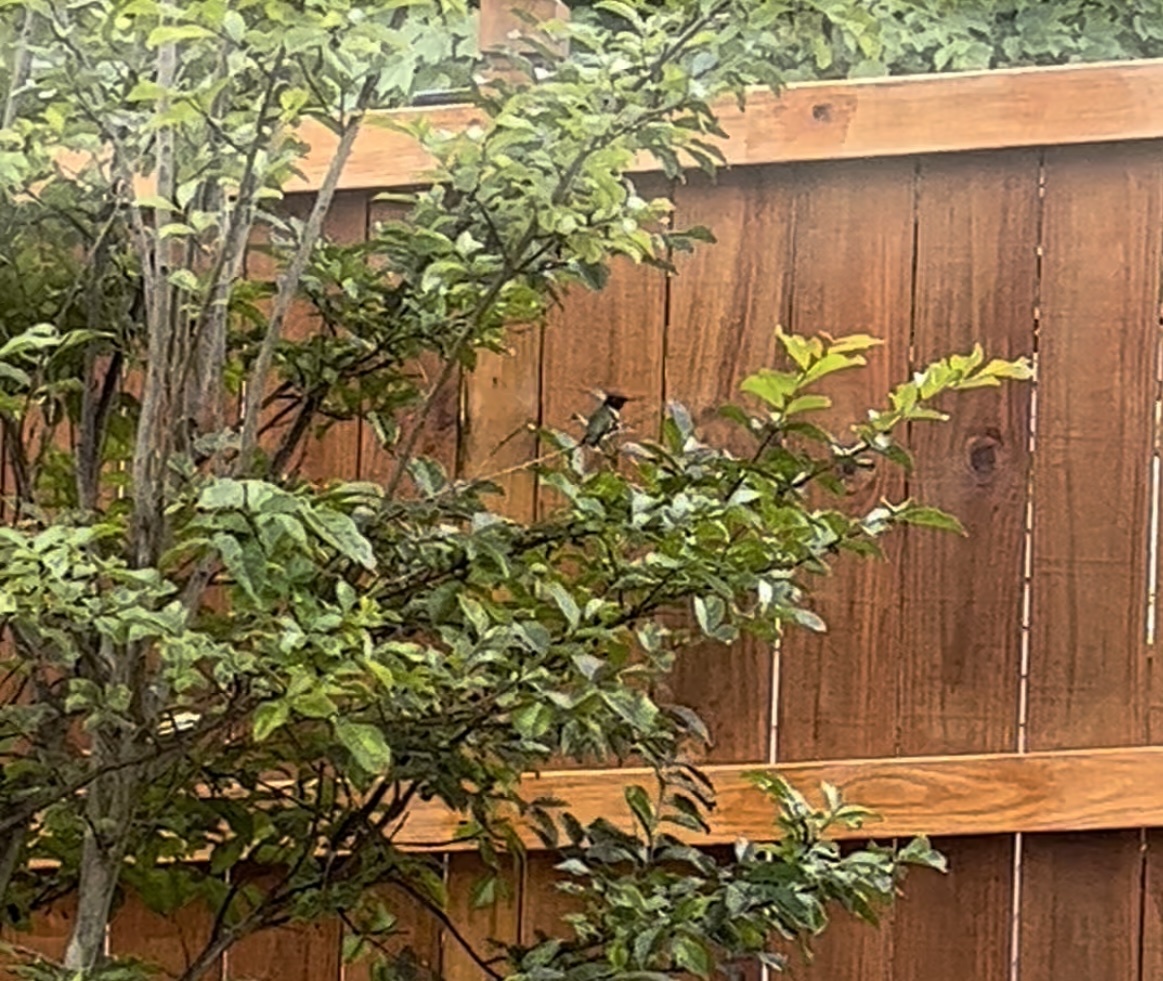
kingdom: Animalia
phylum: Chordata
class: Aves
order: Apodiformes
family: Trochilidae
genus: Archilochus
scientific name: Archilochus colubris
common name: Ruby-throated hummingbird
